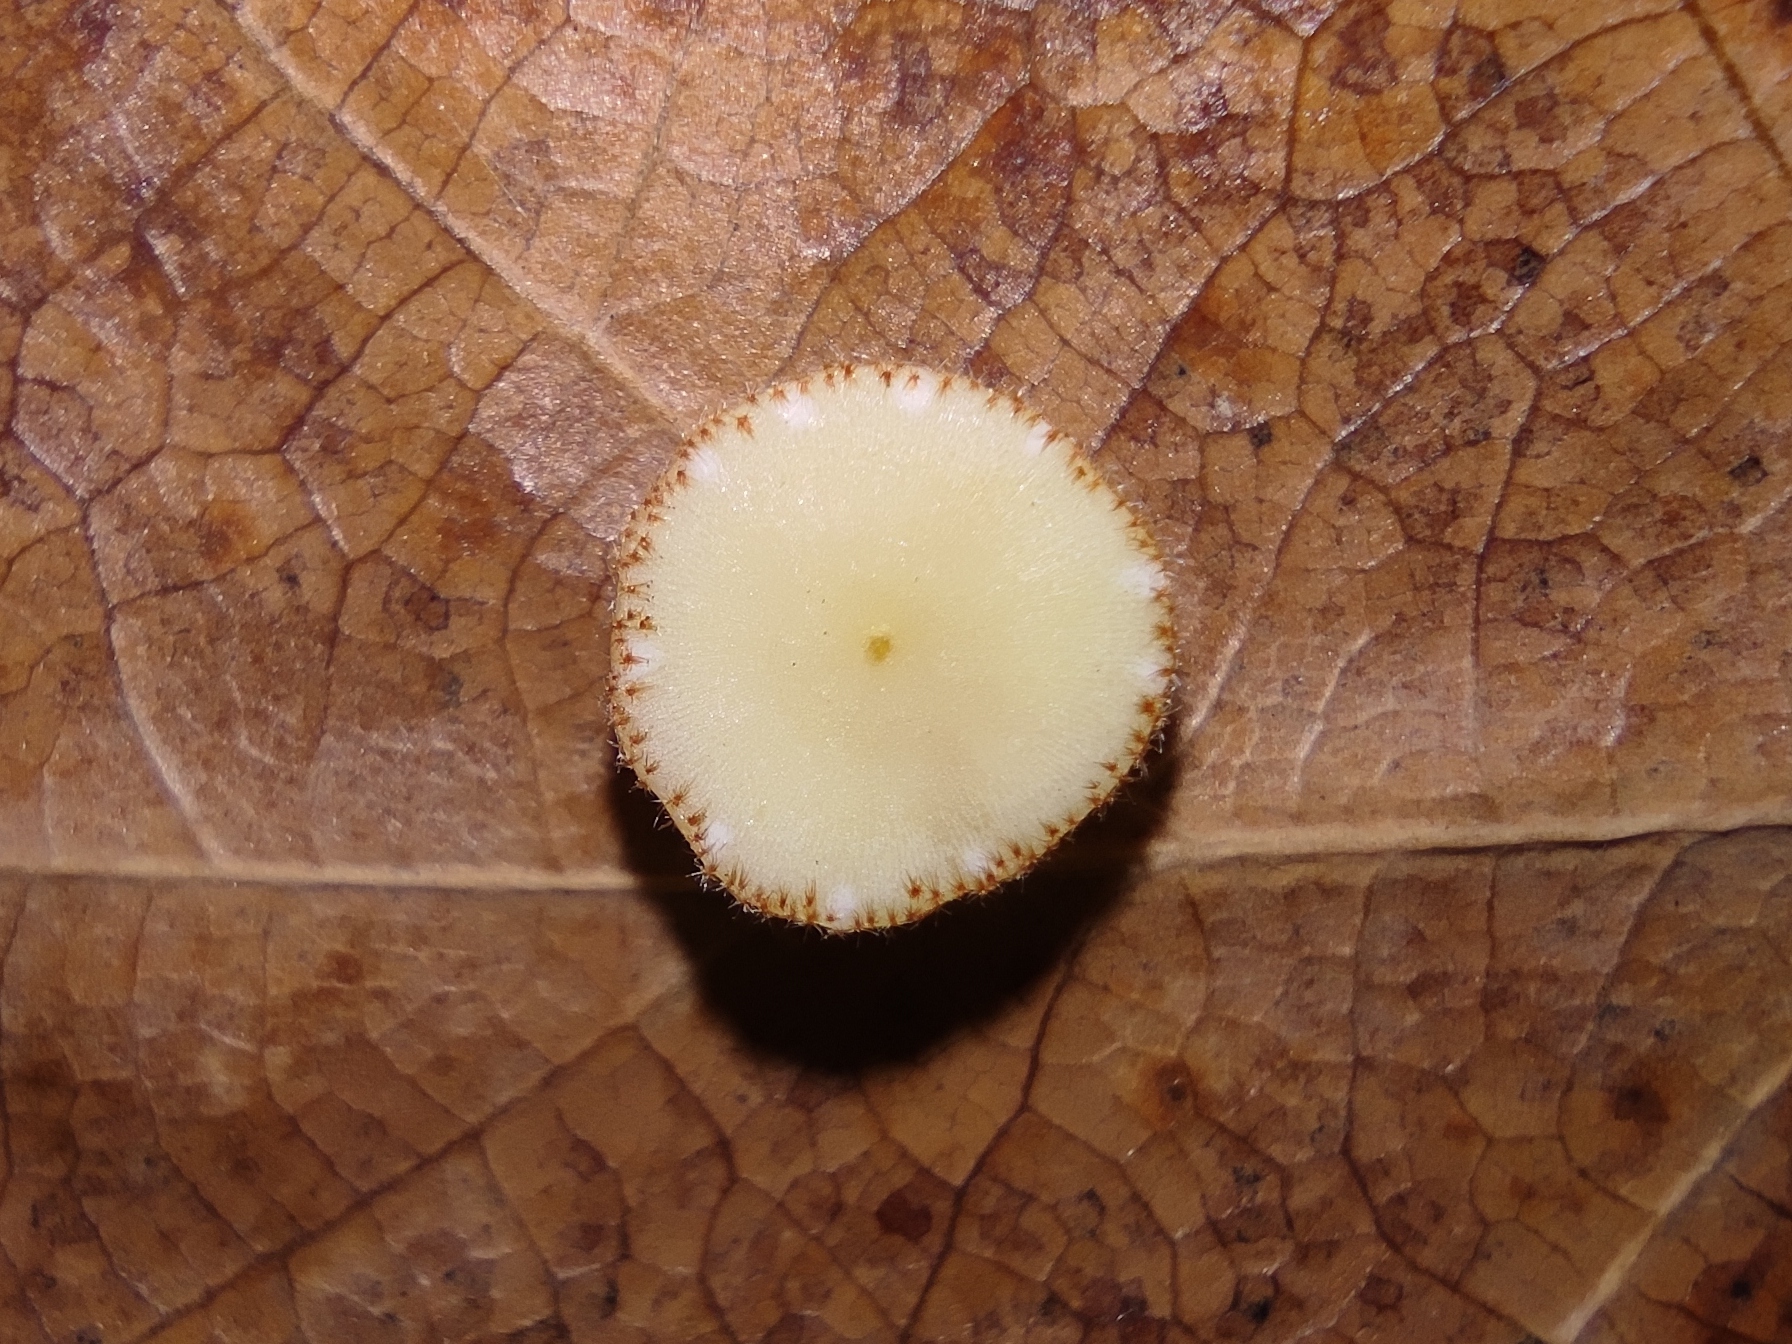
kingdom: Animalia
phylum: Arthropoda
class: Insecta
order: Hymenoptera
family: Cynipidae
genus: Neuroterus
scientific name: Neuroterus quercusbaccarum
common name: Common spangle gall
